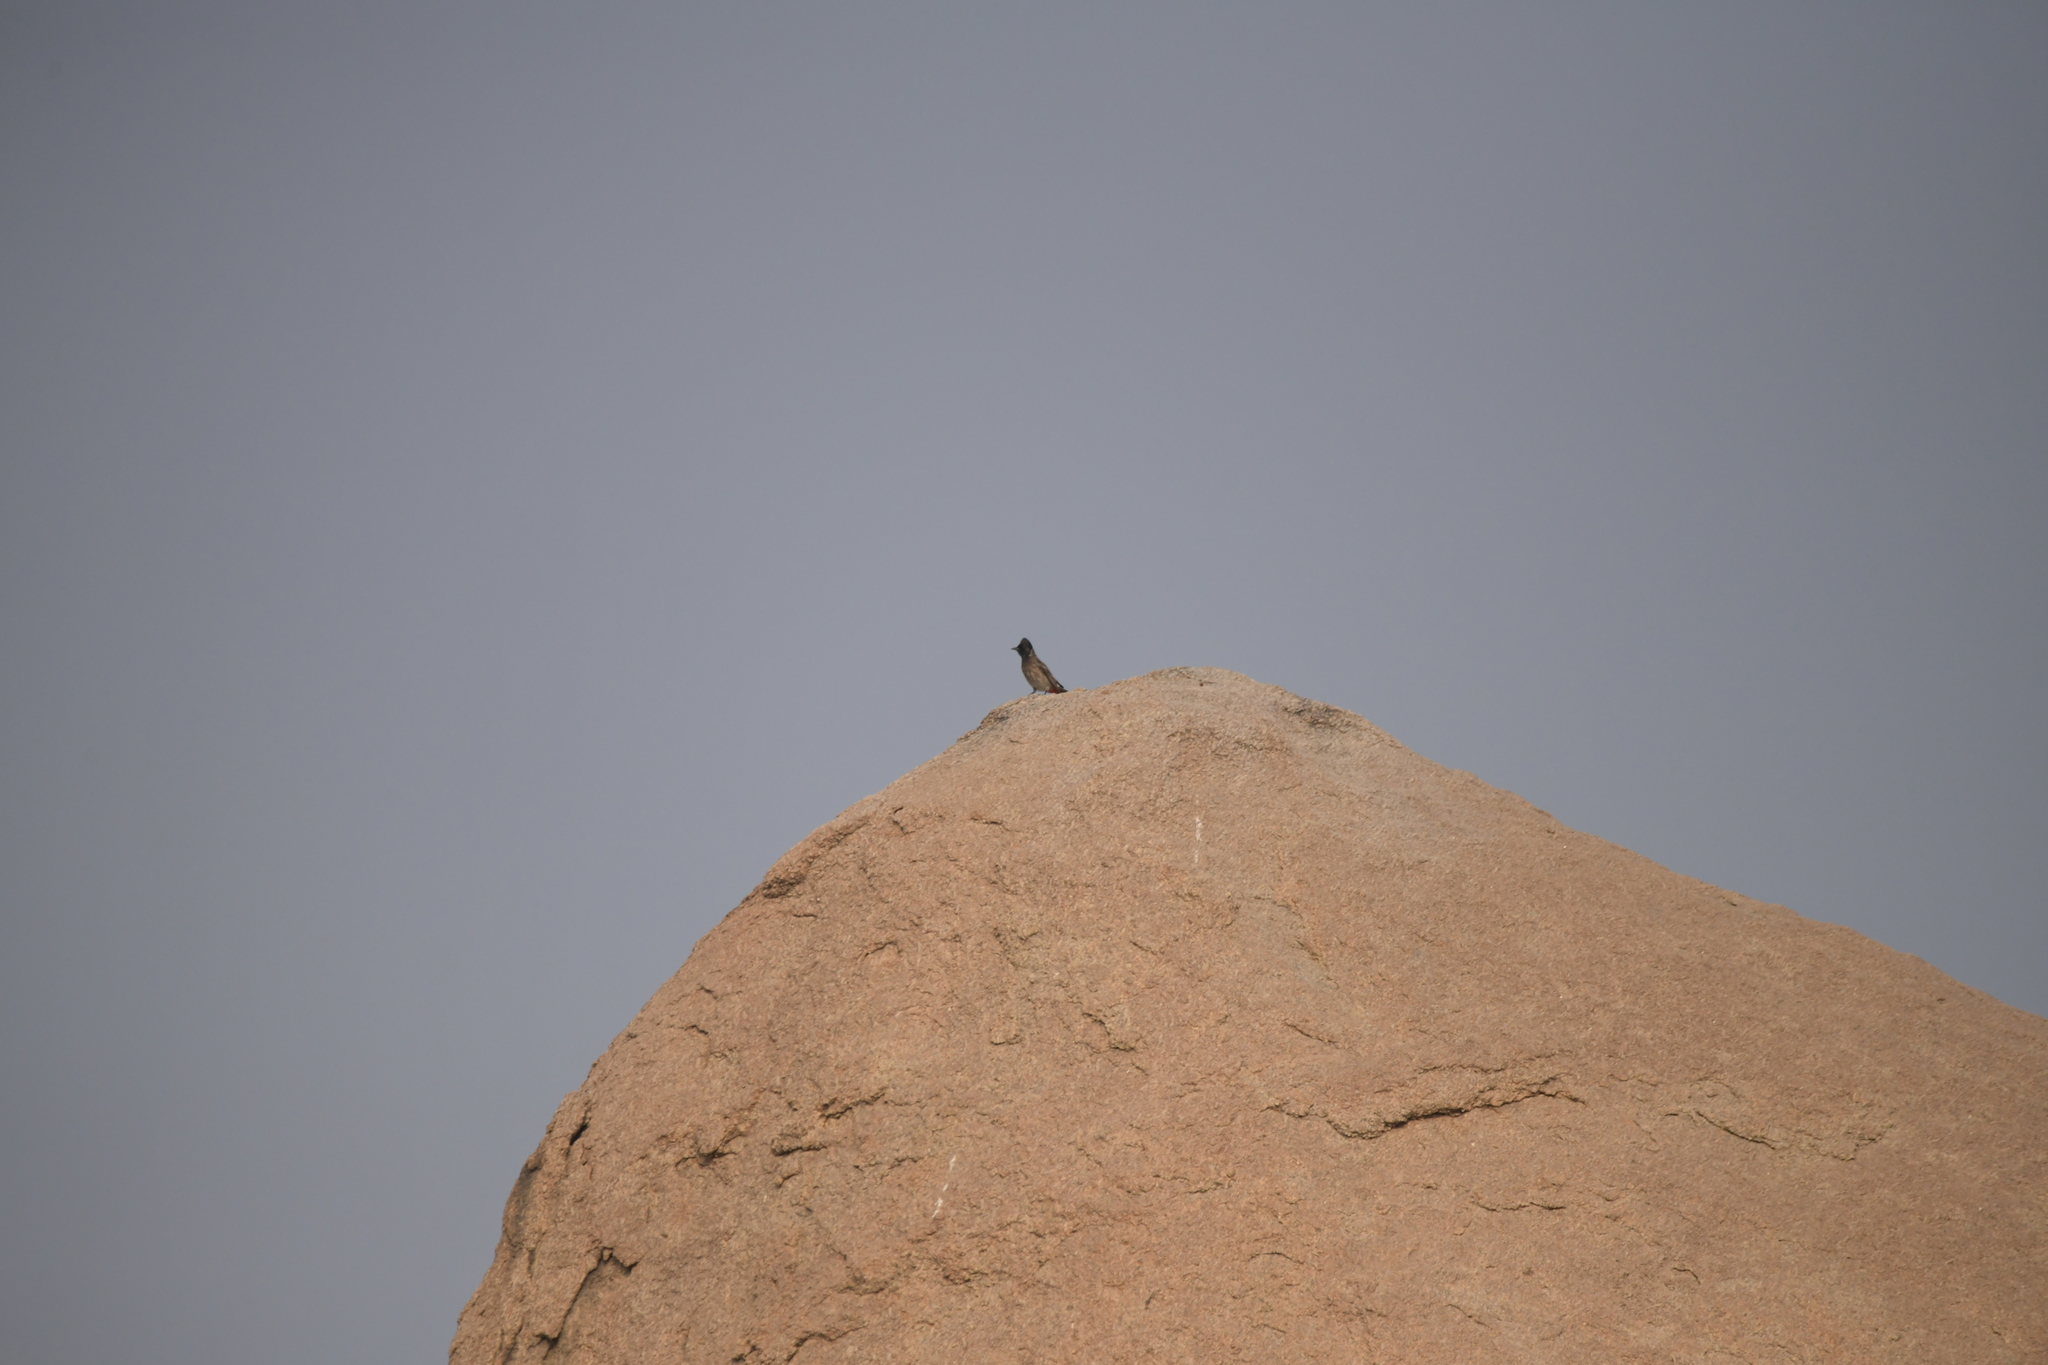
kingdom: Animalia
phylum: Chordata
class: Aves
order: Passeriformes
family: Pycnonotidae
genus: Pycnonotus
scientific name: Pycnonotus cafer
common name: Red-vented bulbul
